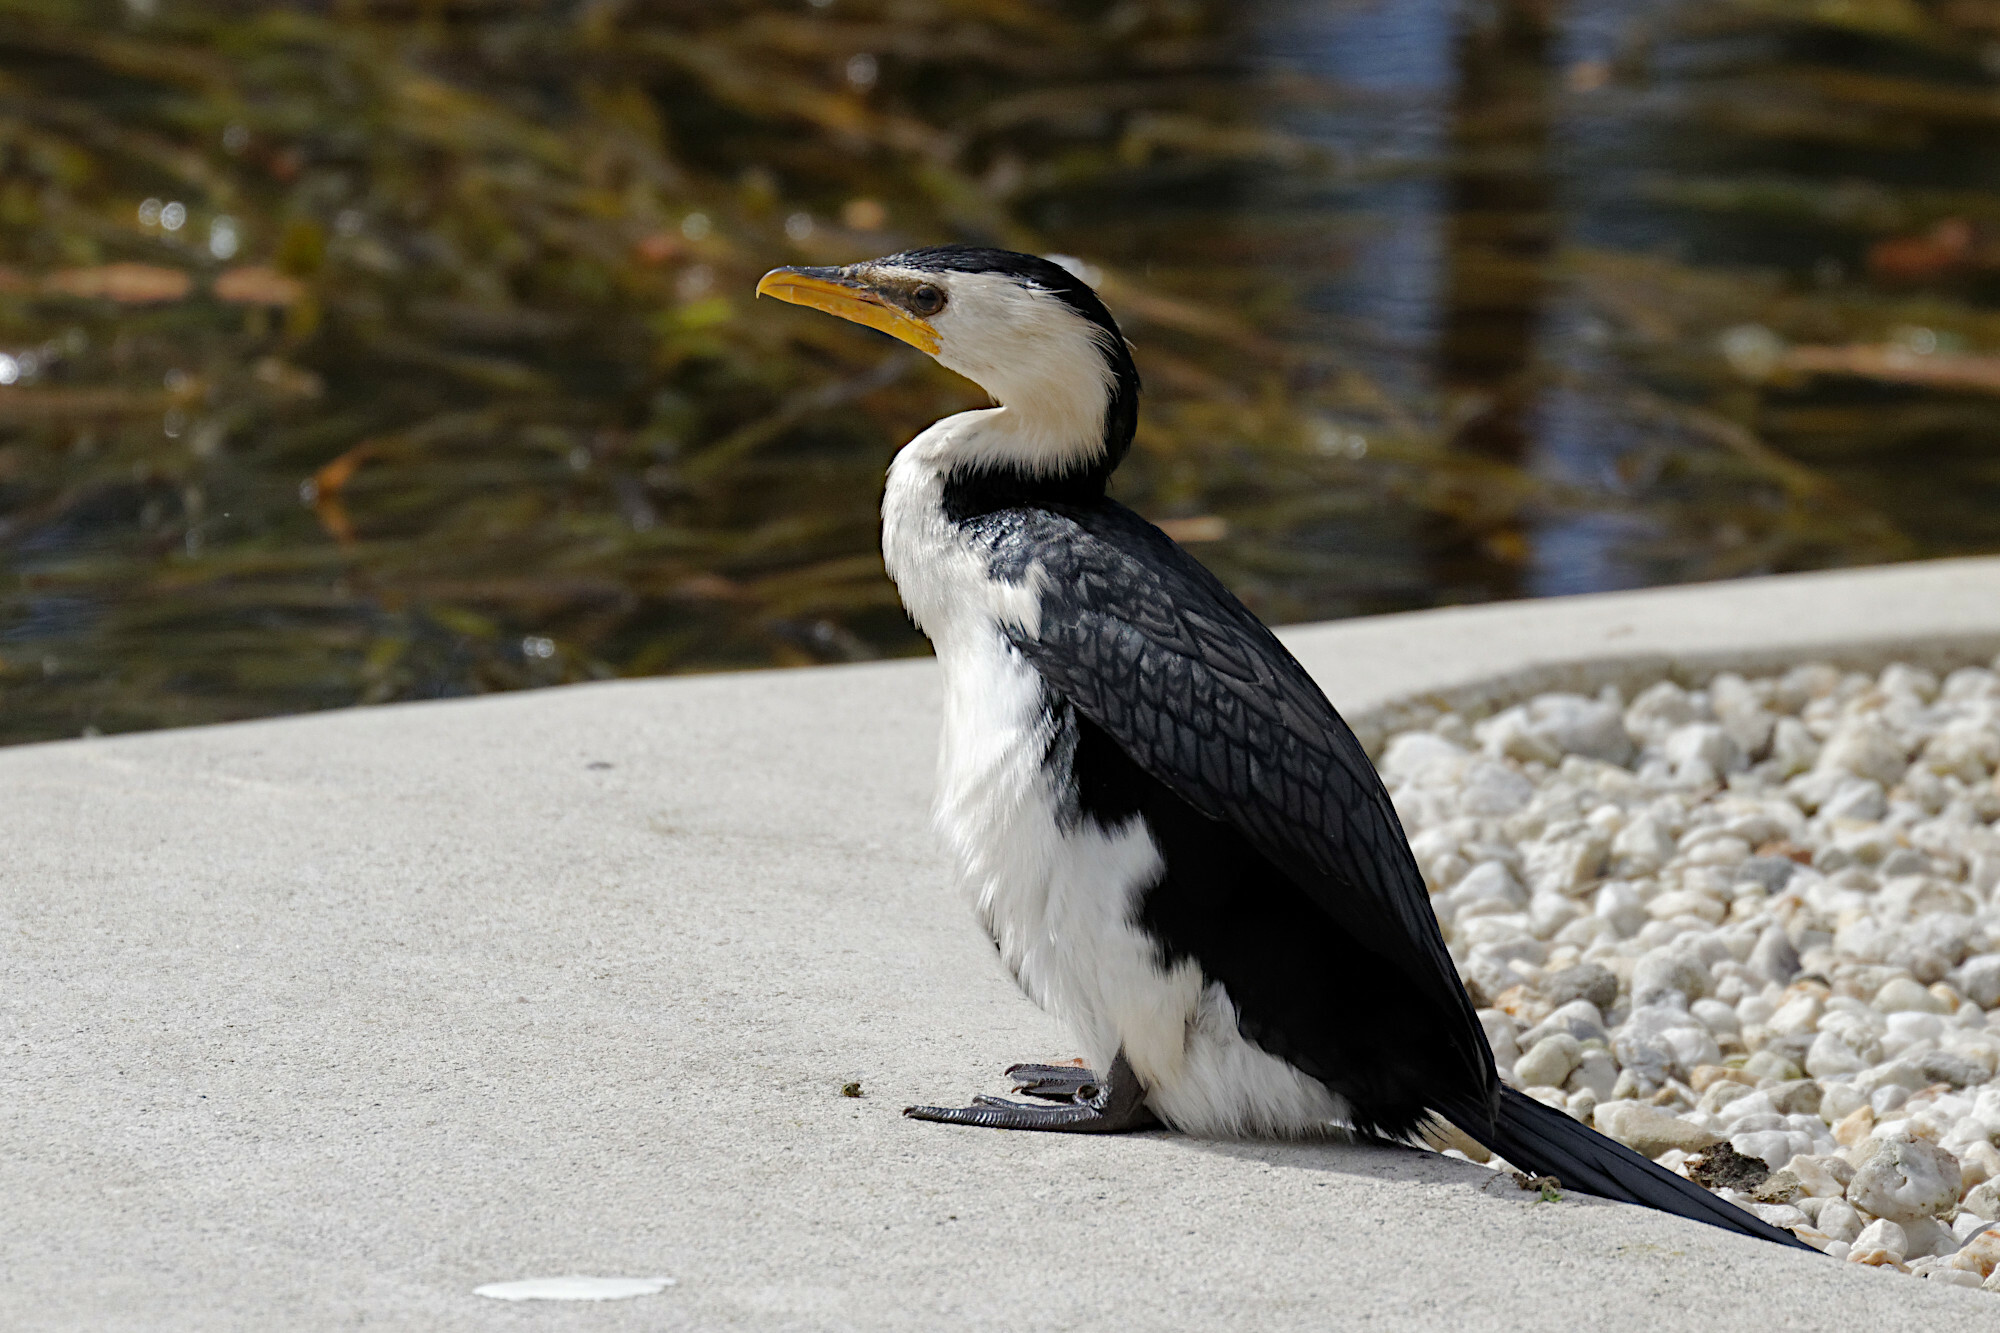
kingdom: Animalia
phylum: Chordata
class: Aves
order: Suliformes
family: Phalacrocoracidae
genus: Microcarbo
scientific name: Microcarbo melanoleucos
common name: Little pied cormorant
